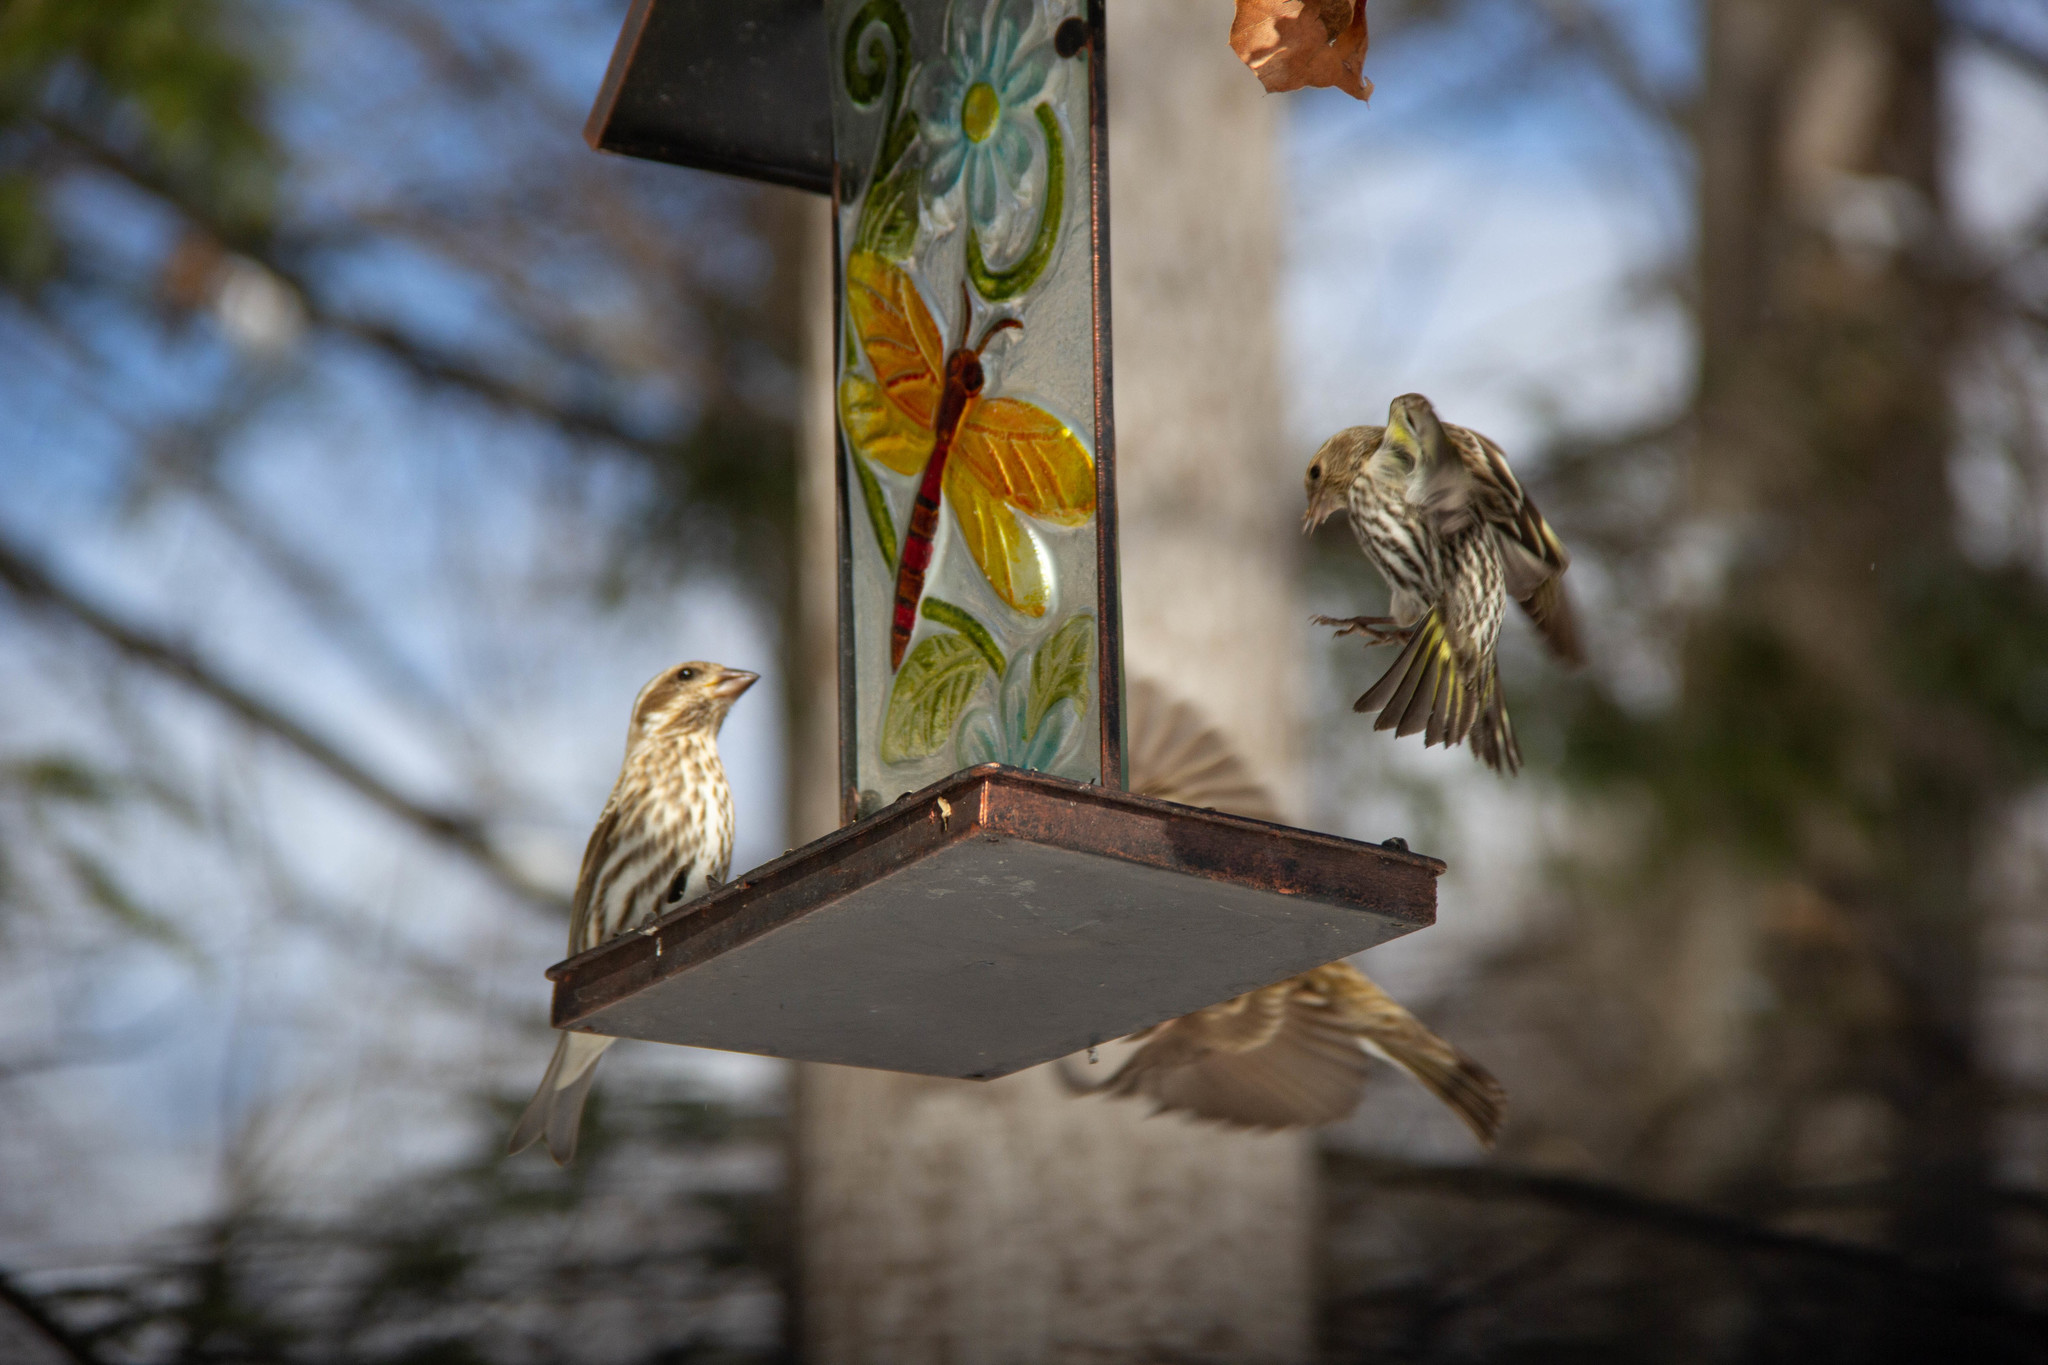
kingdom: Animalia
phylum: Chordata
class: Aves
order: Passeriformes
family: Fringillidae
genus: Haemorhous
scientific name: Haemorhous purpureus
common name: Purple finch
